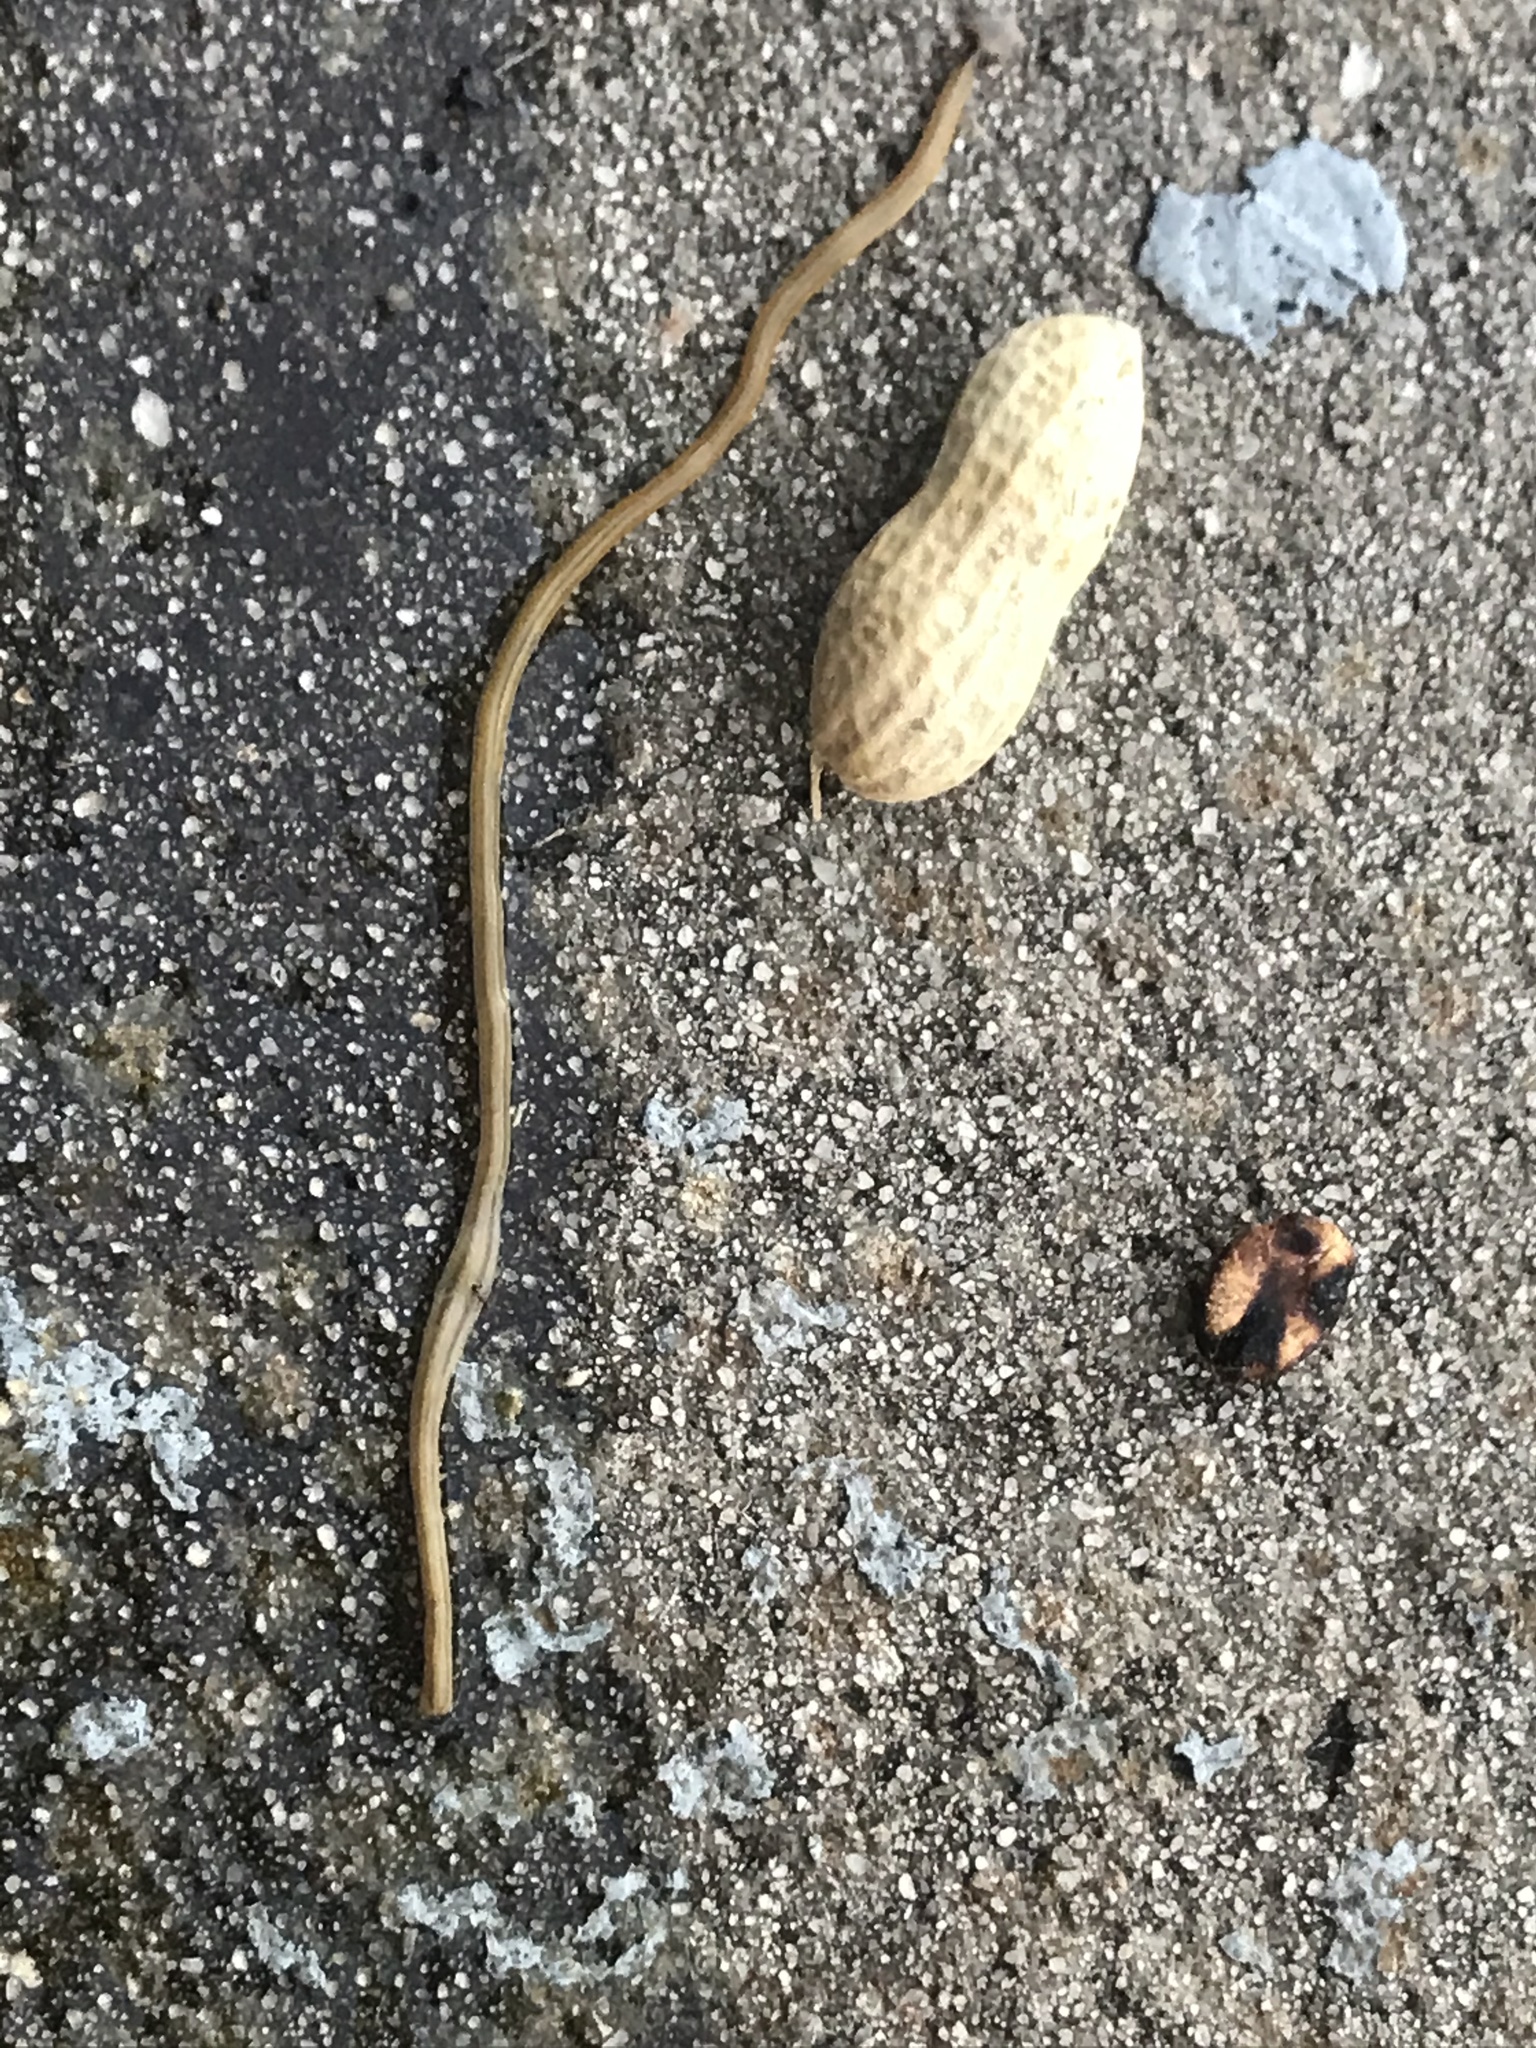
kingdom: Animalia
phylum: Platyhelminthes
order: Tricladida
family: Geoplanidae
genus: Bipalium
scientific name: Bipalium kewense
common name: Hammerhead flatworm
